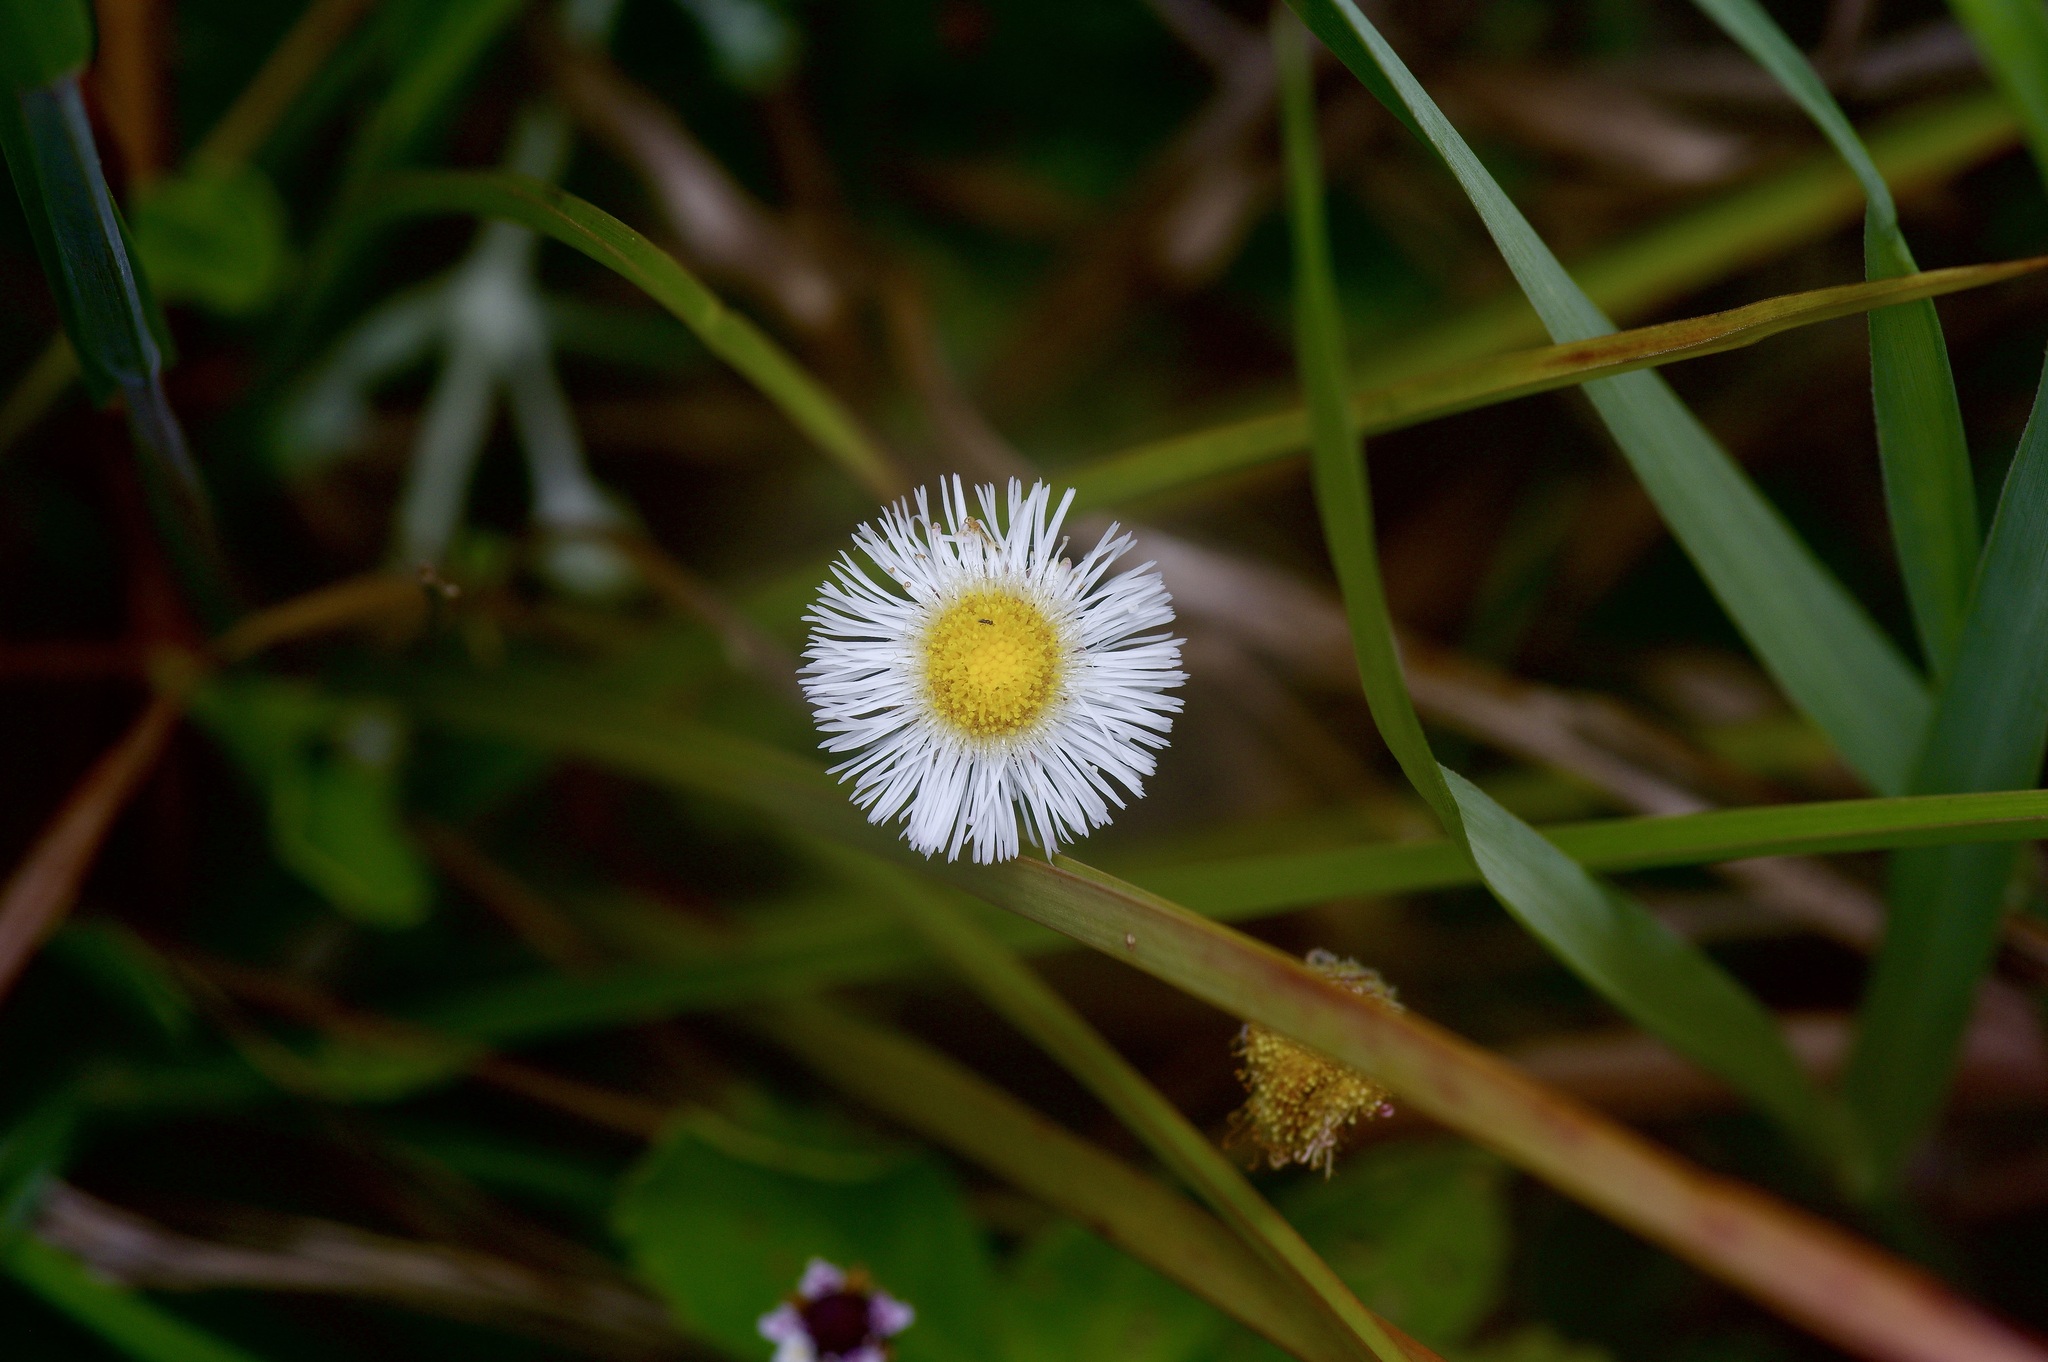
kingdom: Plantae
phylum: Tracheophyta
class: Magnoliopsida
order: Asterales
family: Asteraceae
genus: Erigeron
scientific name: Erigeron procumbens
